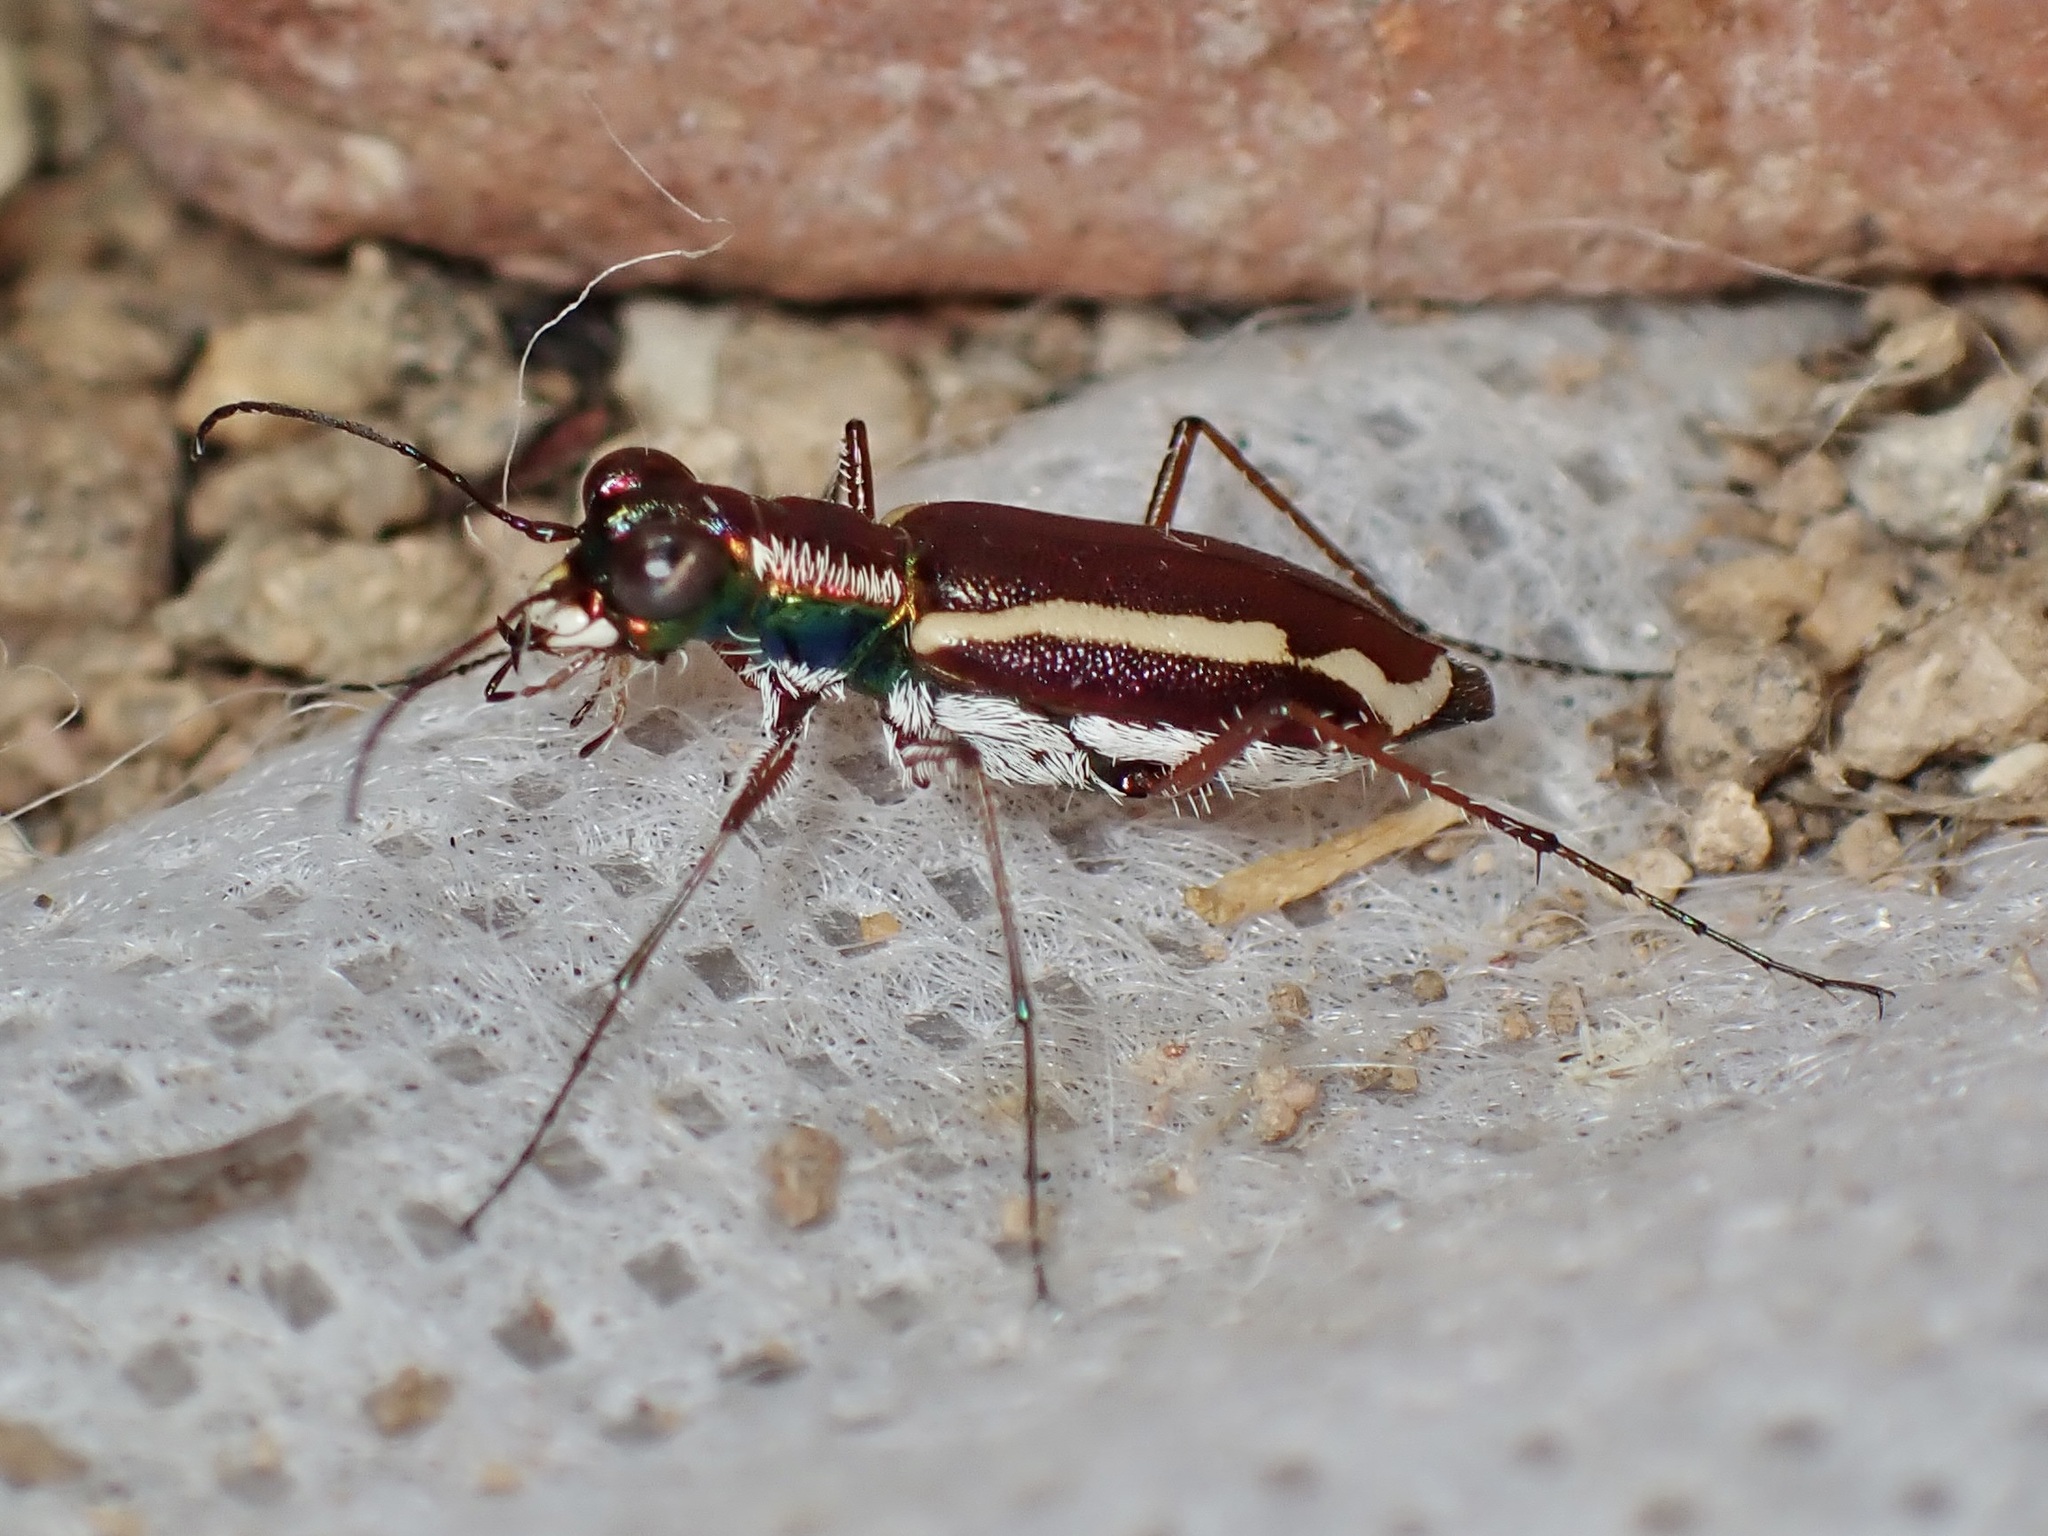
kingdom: Animalia
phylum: Arthropoda
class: Insecta
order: Coleoptera
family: Carabidae
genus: Cylindera
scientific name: Cylindera lemniscata
